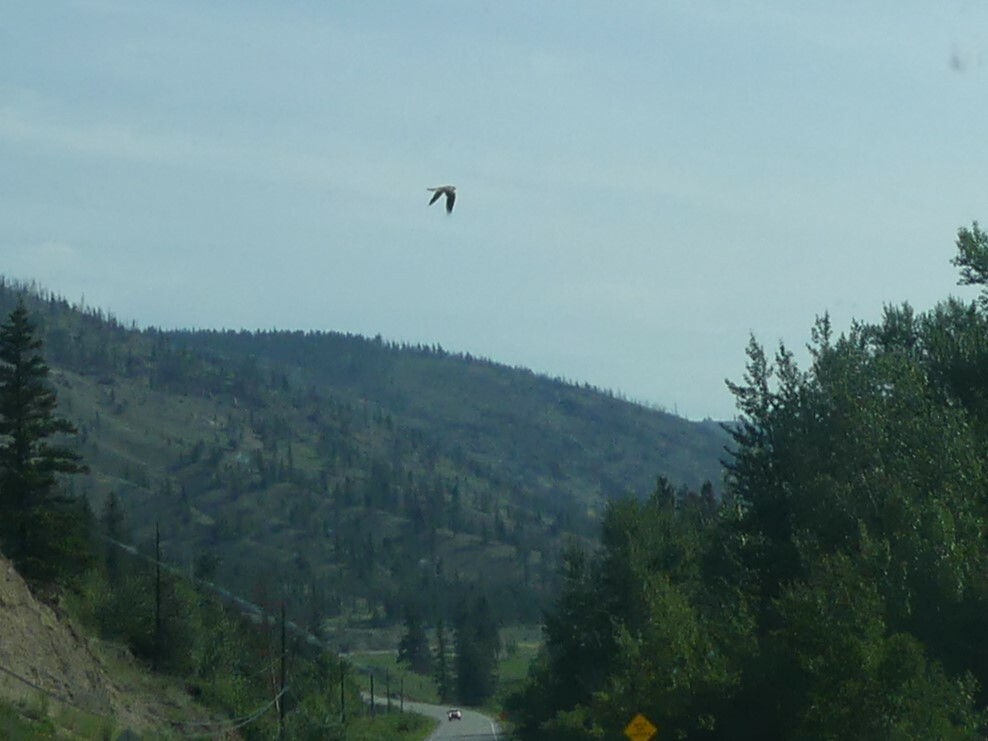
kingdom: Animalia
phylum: Chordata
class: Aves
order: Falconiformes
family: Falconidae
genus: Falco
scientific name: Falco sparverius
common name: American kestrel
